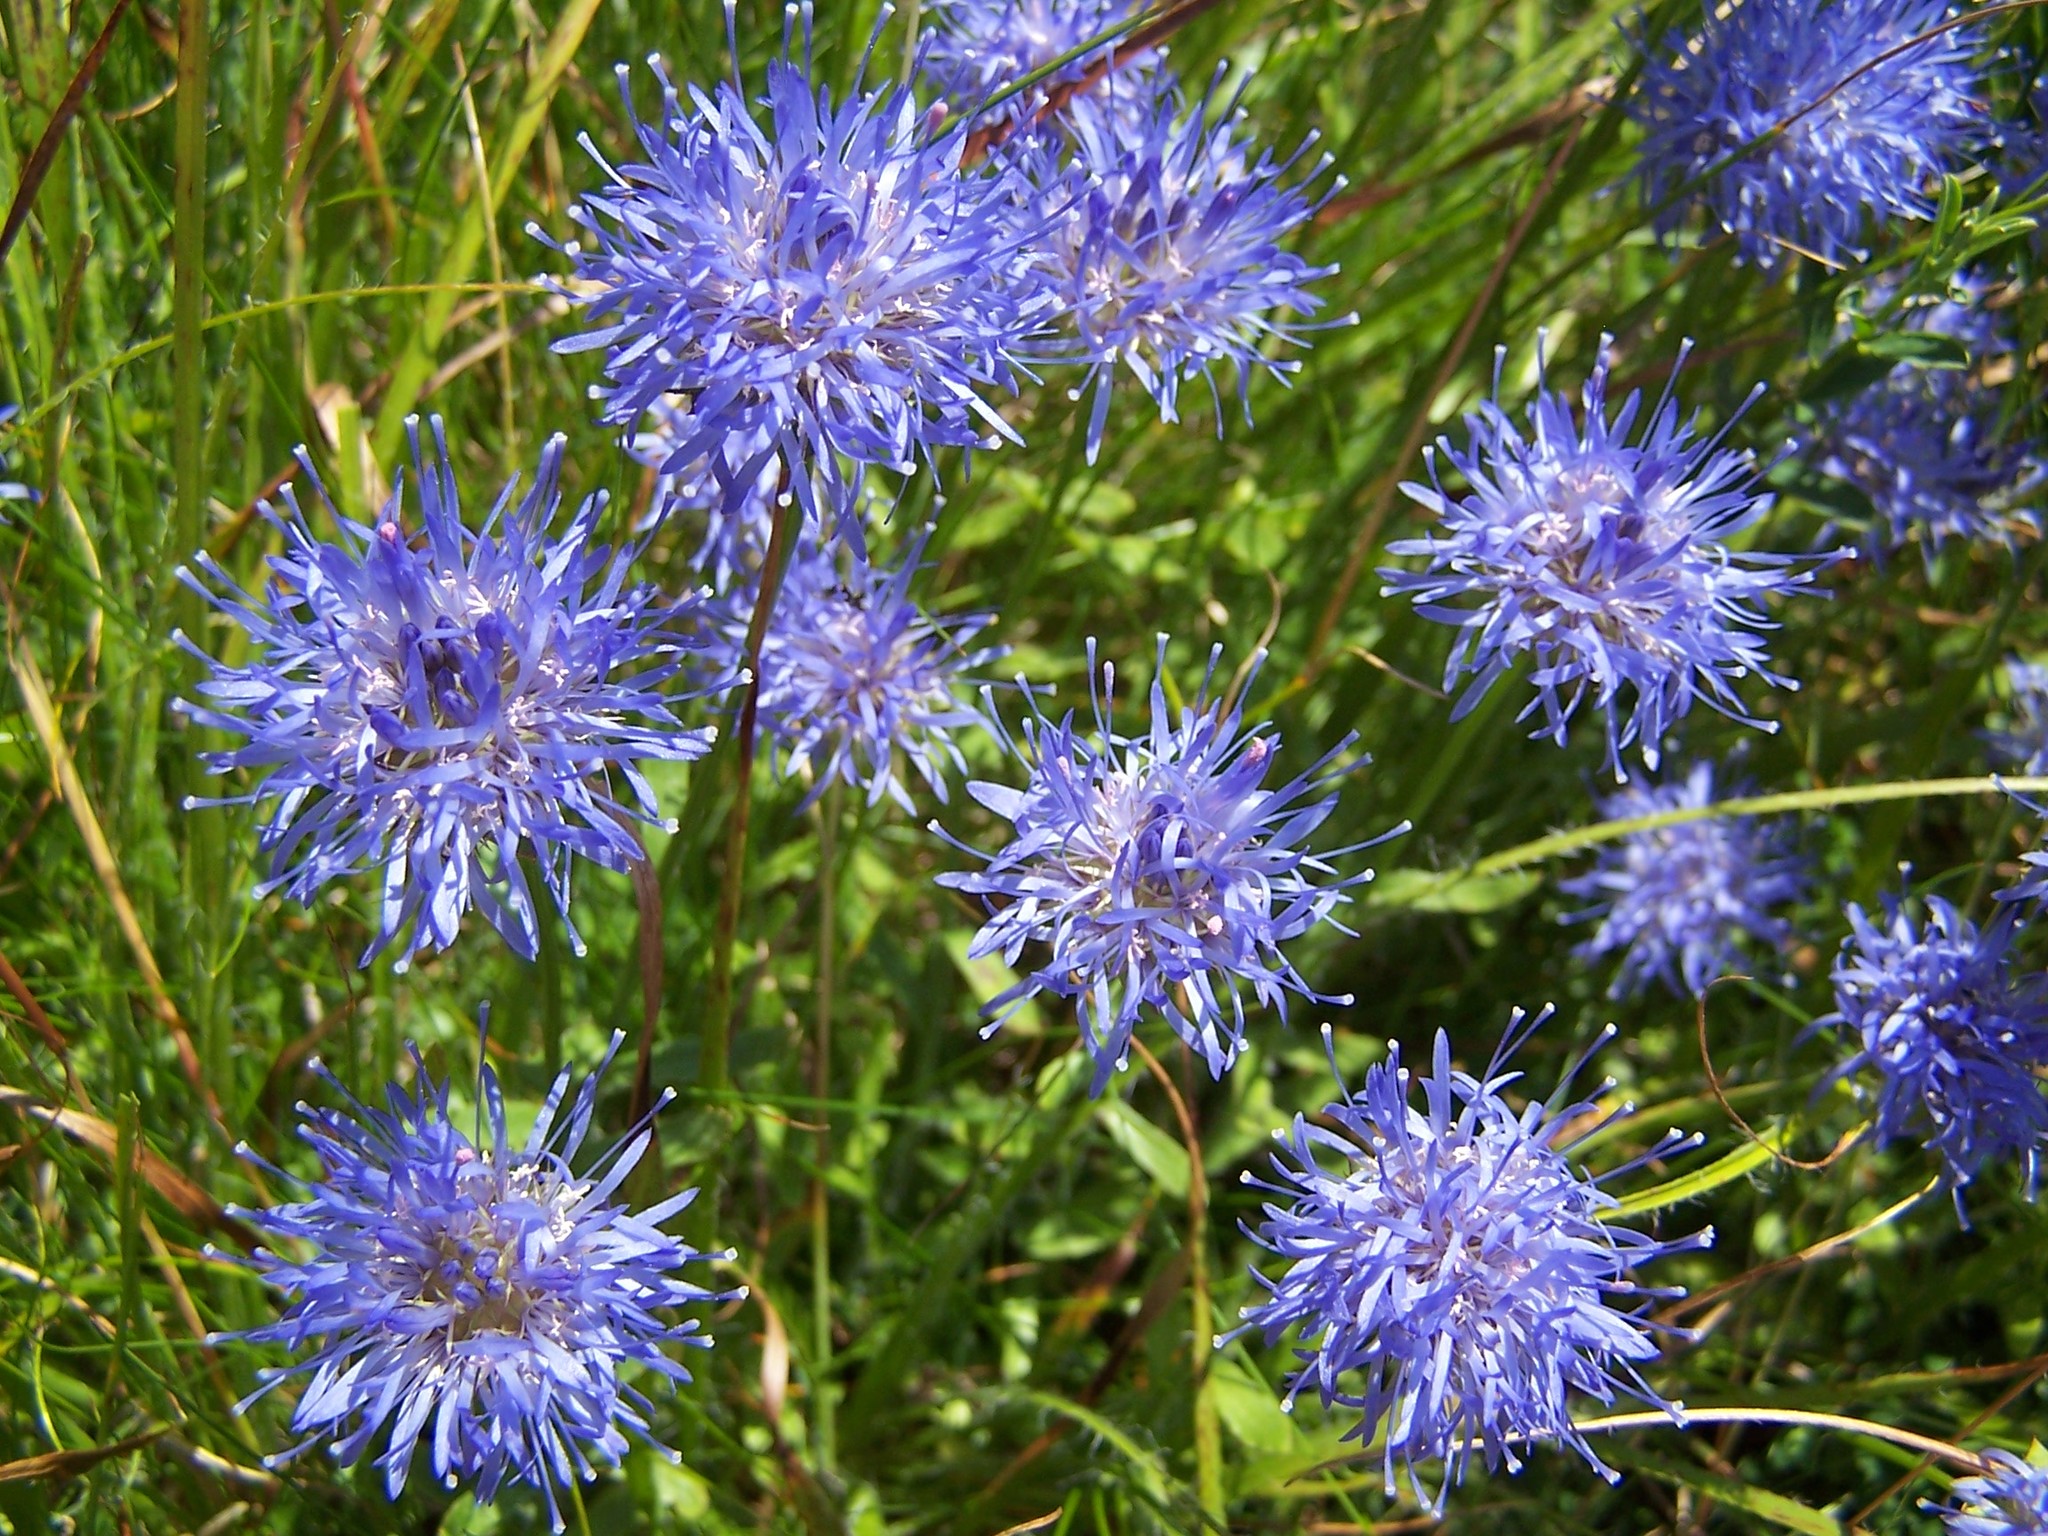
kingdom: Plantae
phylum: Tracheophyta
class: Magnoliopsida
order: Asterales
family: Campanulaceae
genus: Jasione
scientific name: Jasione laevis
